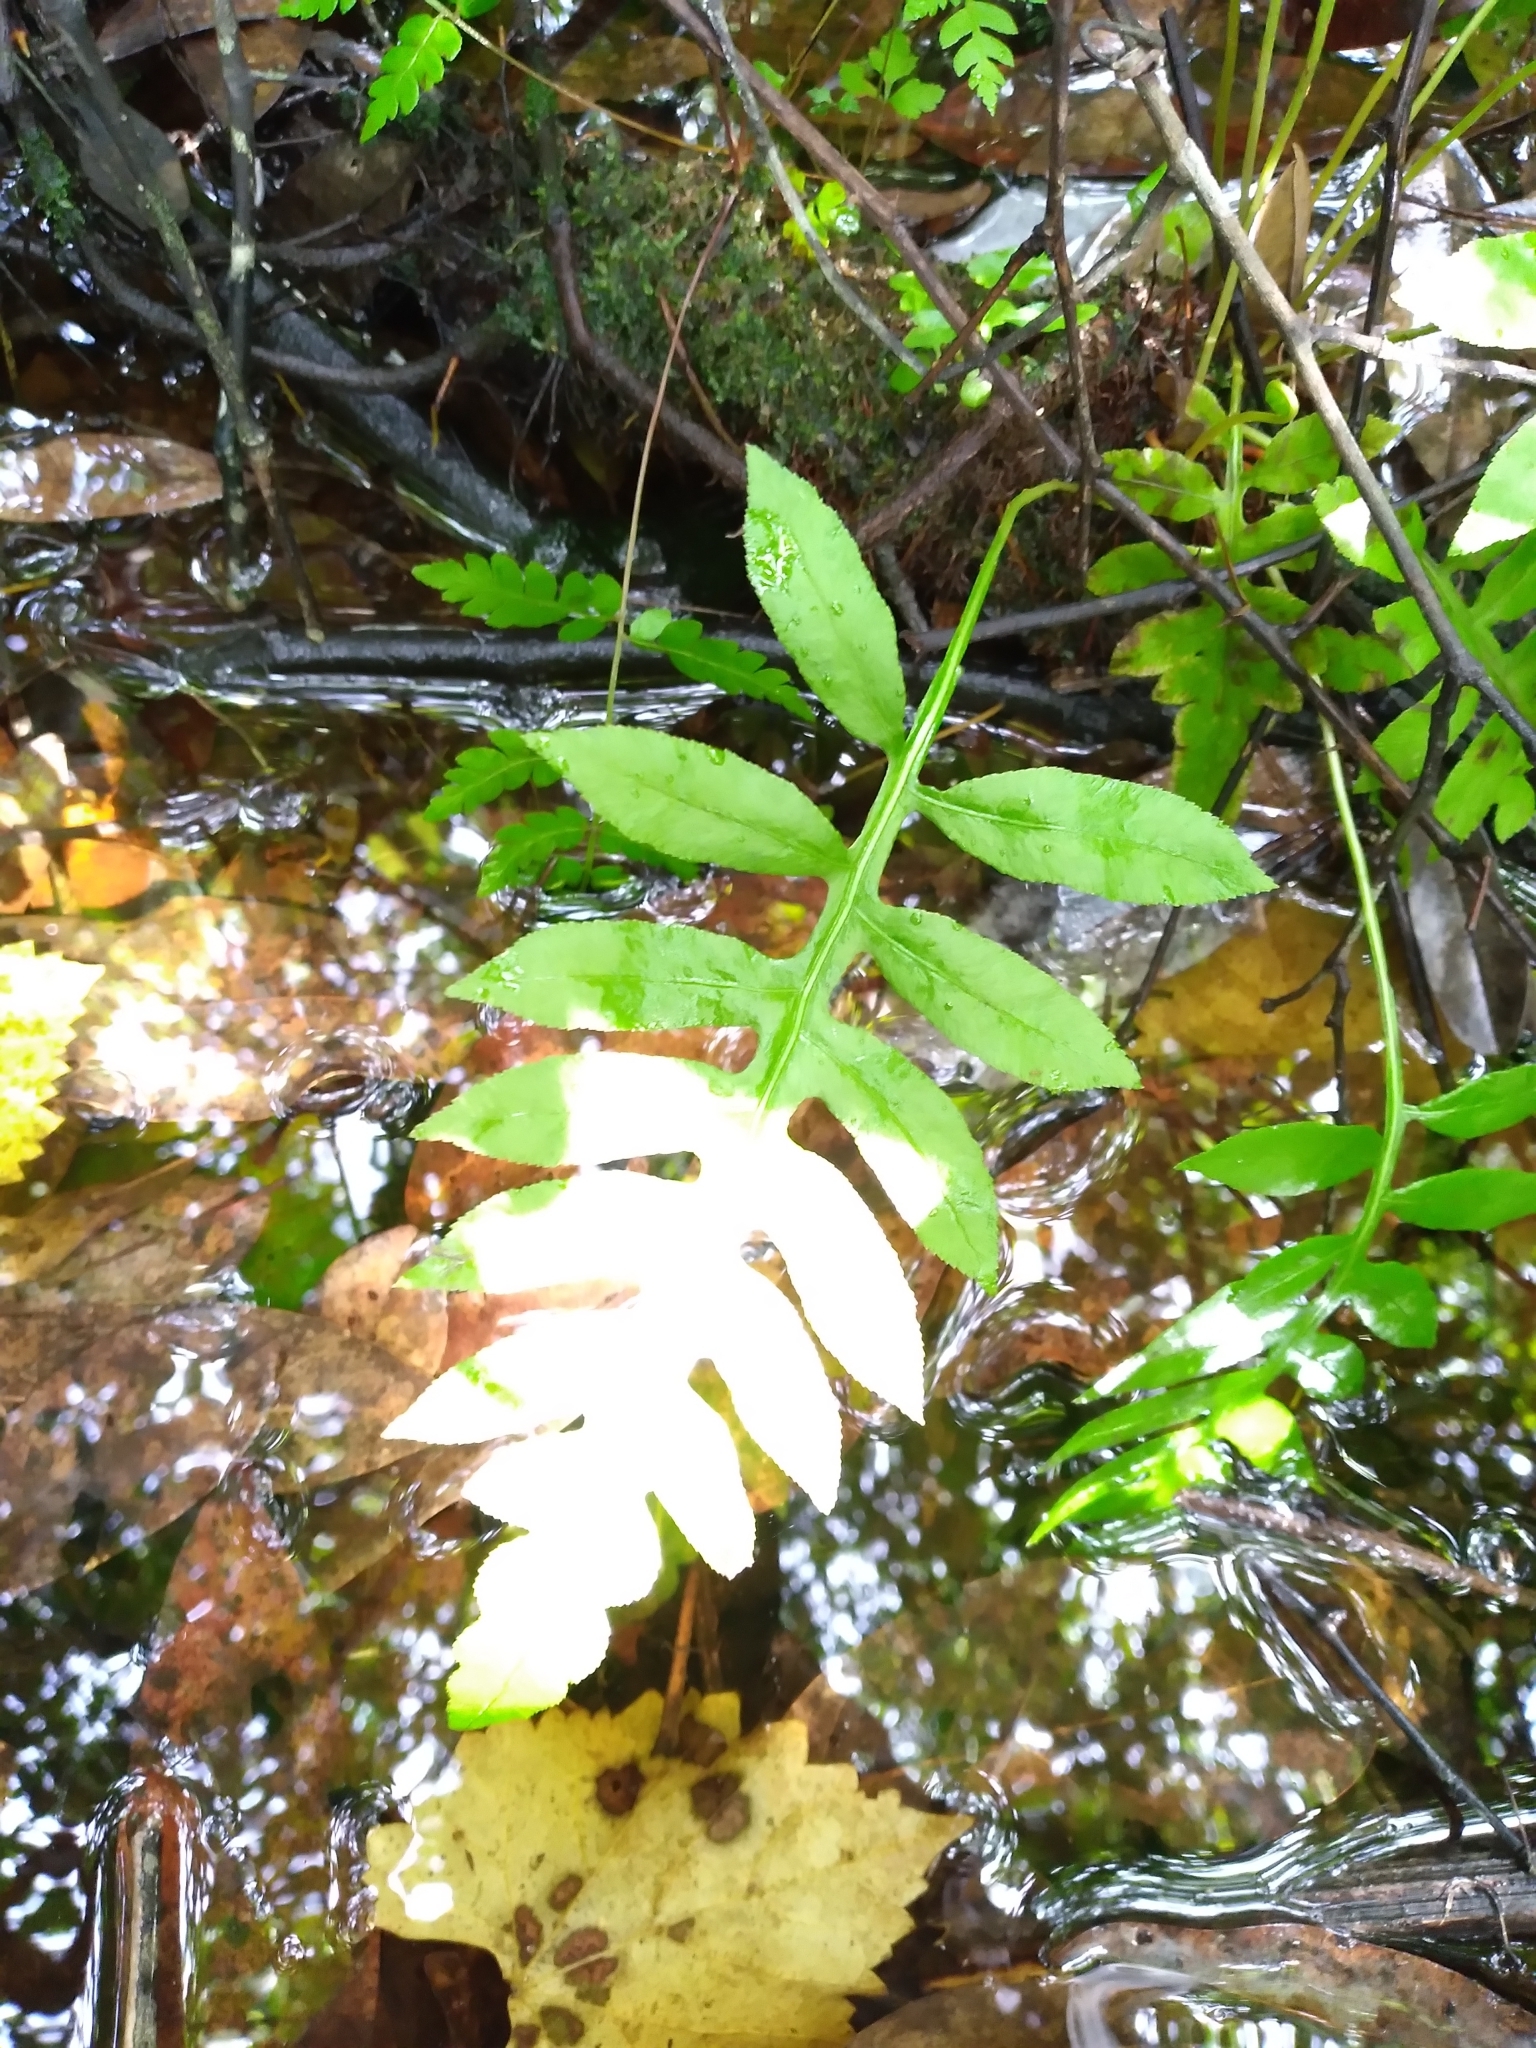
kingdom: Plantae
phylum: Tracheophyta
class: Polypodiopsida
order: Polypodiales
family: Blechnaceae
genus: Lorinseria
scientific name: Lorinseria areolata
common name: Dwarf chain fern
